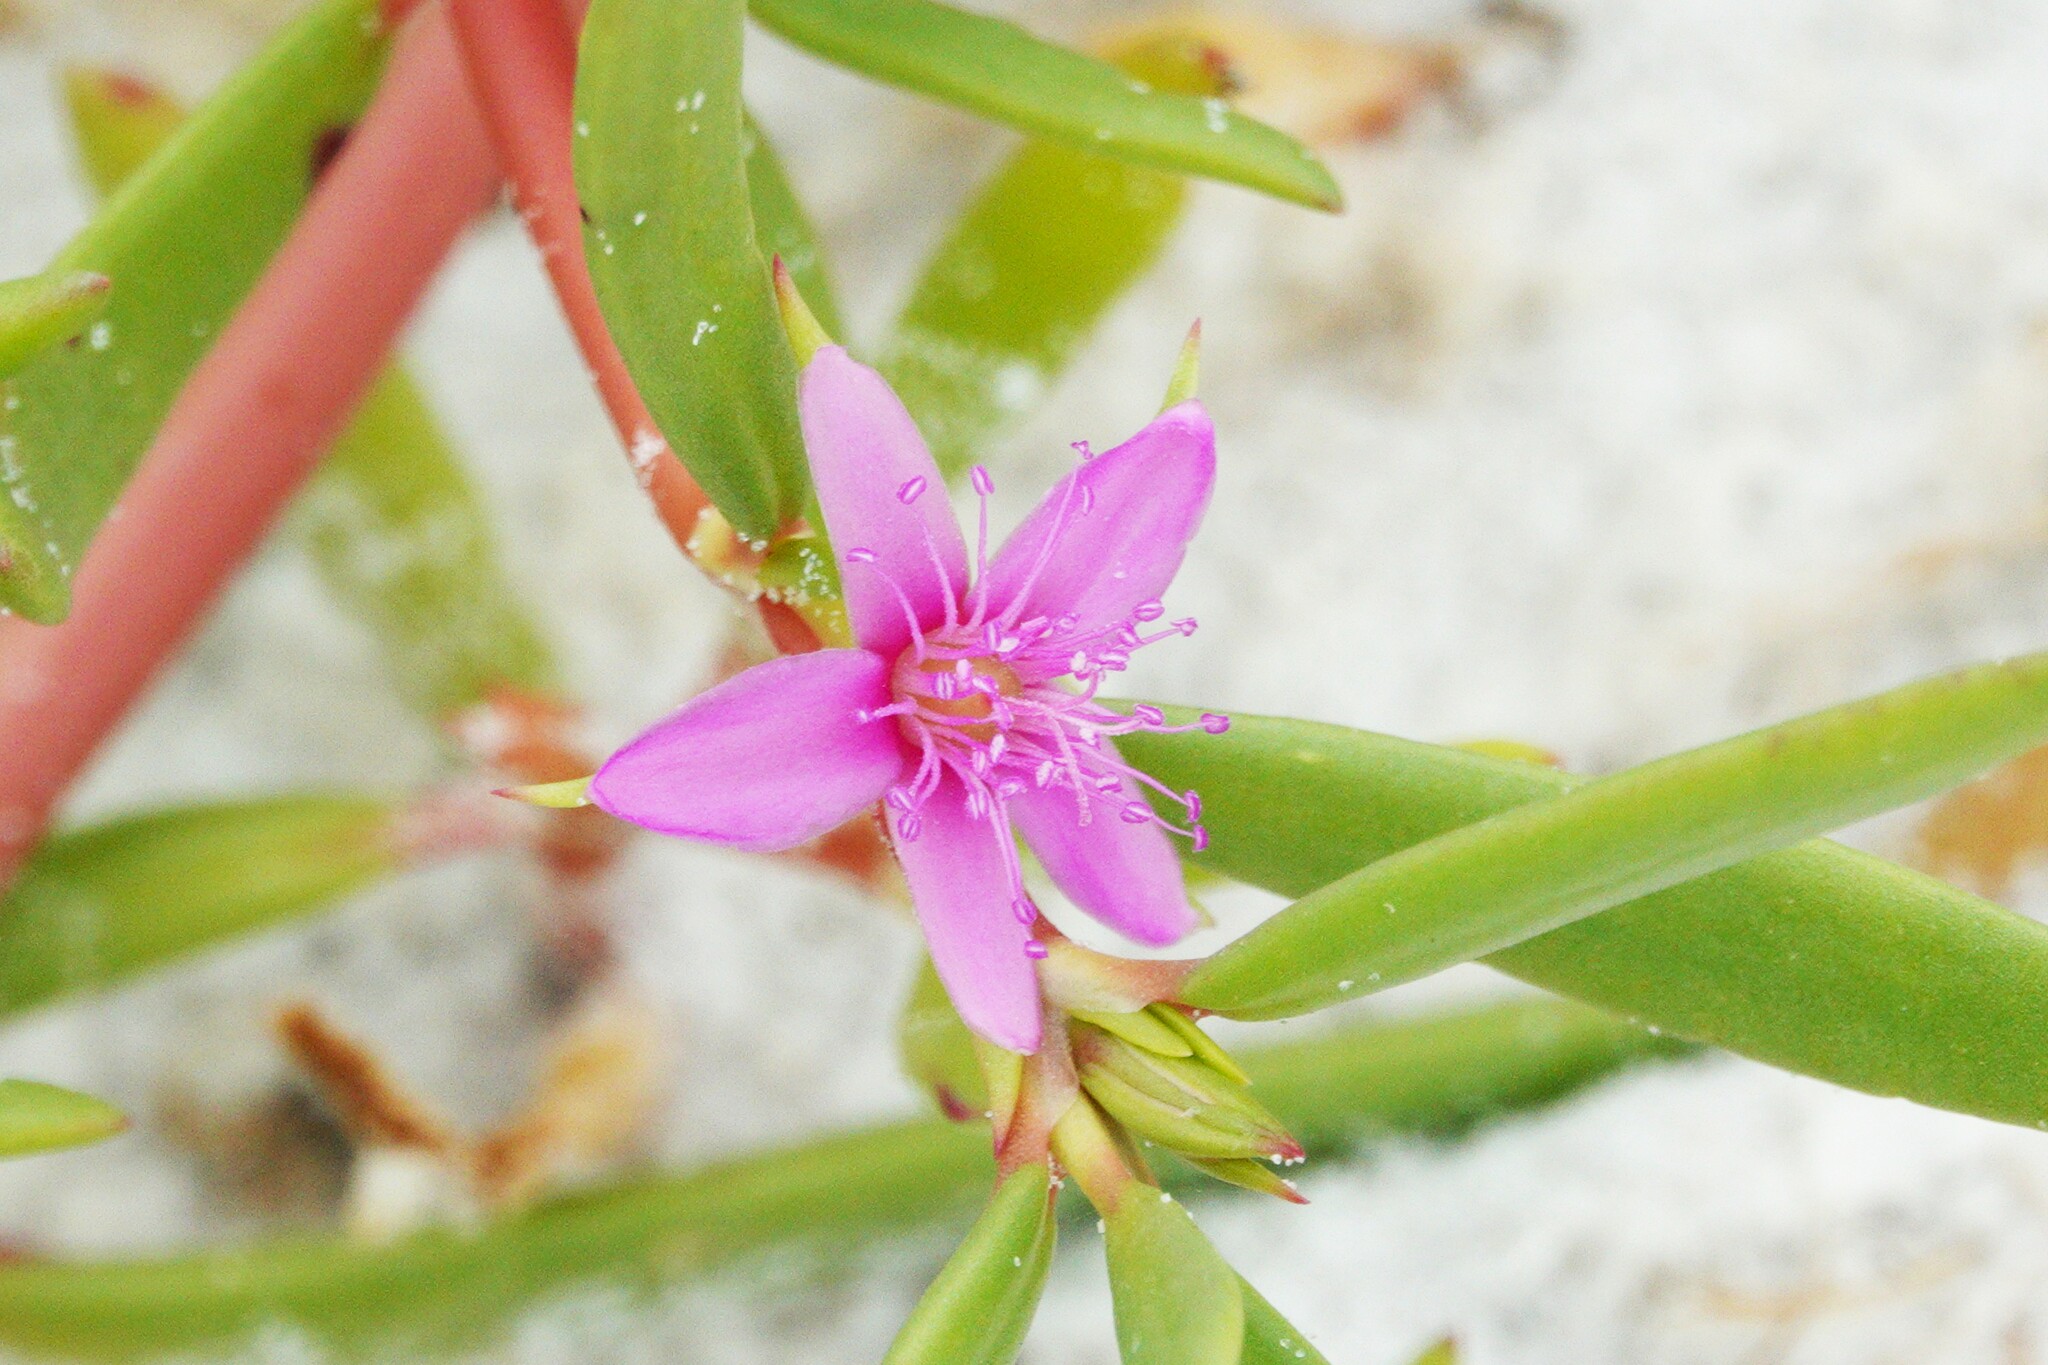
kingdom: Plantae
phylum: Tracheophyta
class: Magnoliopsida
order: Caryophyllales
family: Aizoaceae
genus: Sesuvium
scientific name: Sesuvium portulacastrum
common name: Sea-purslane
